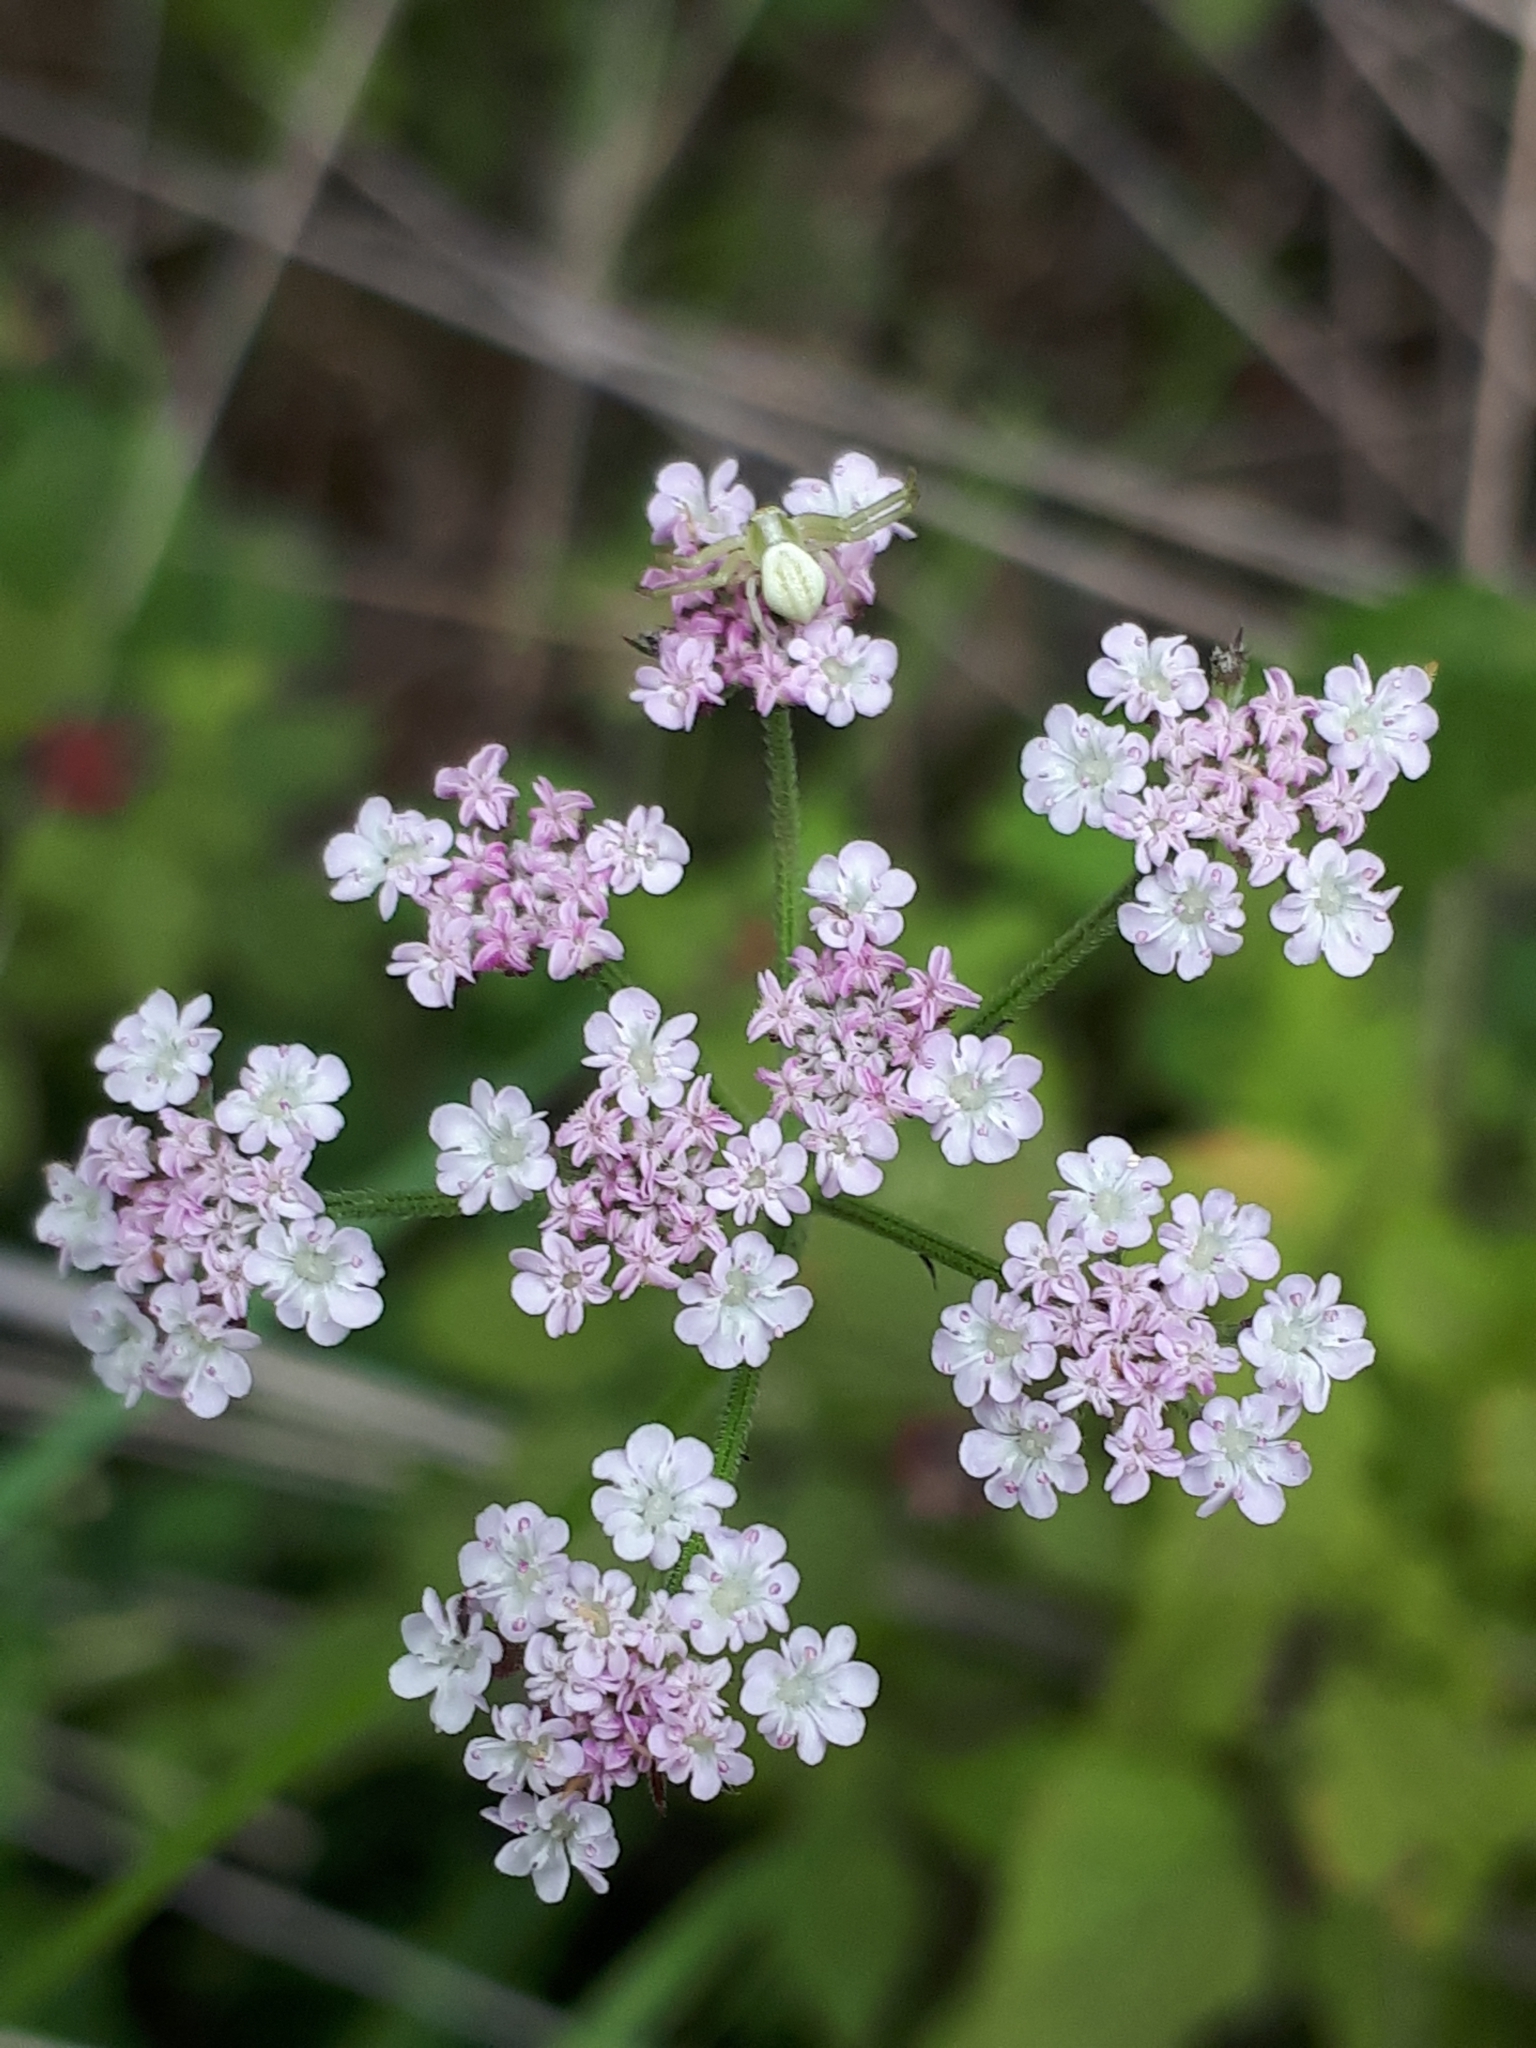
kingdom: Animalia
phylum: Arthropoda
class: Arachnida
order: Araneae
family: Thomisidae
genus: Misumena
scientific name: Misumena vatia
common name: Goldenrod crab spider
